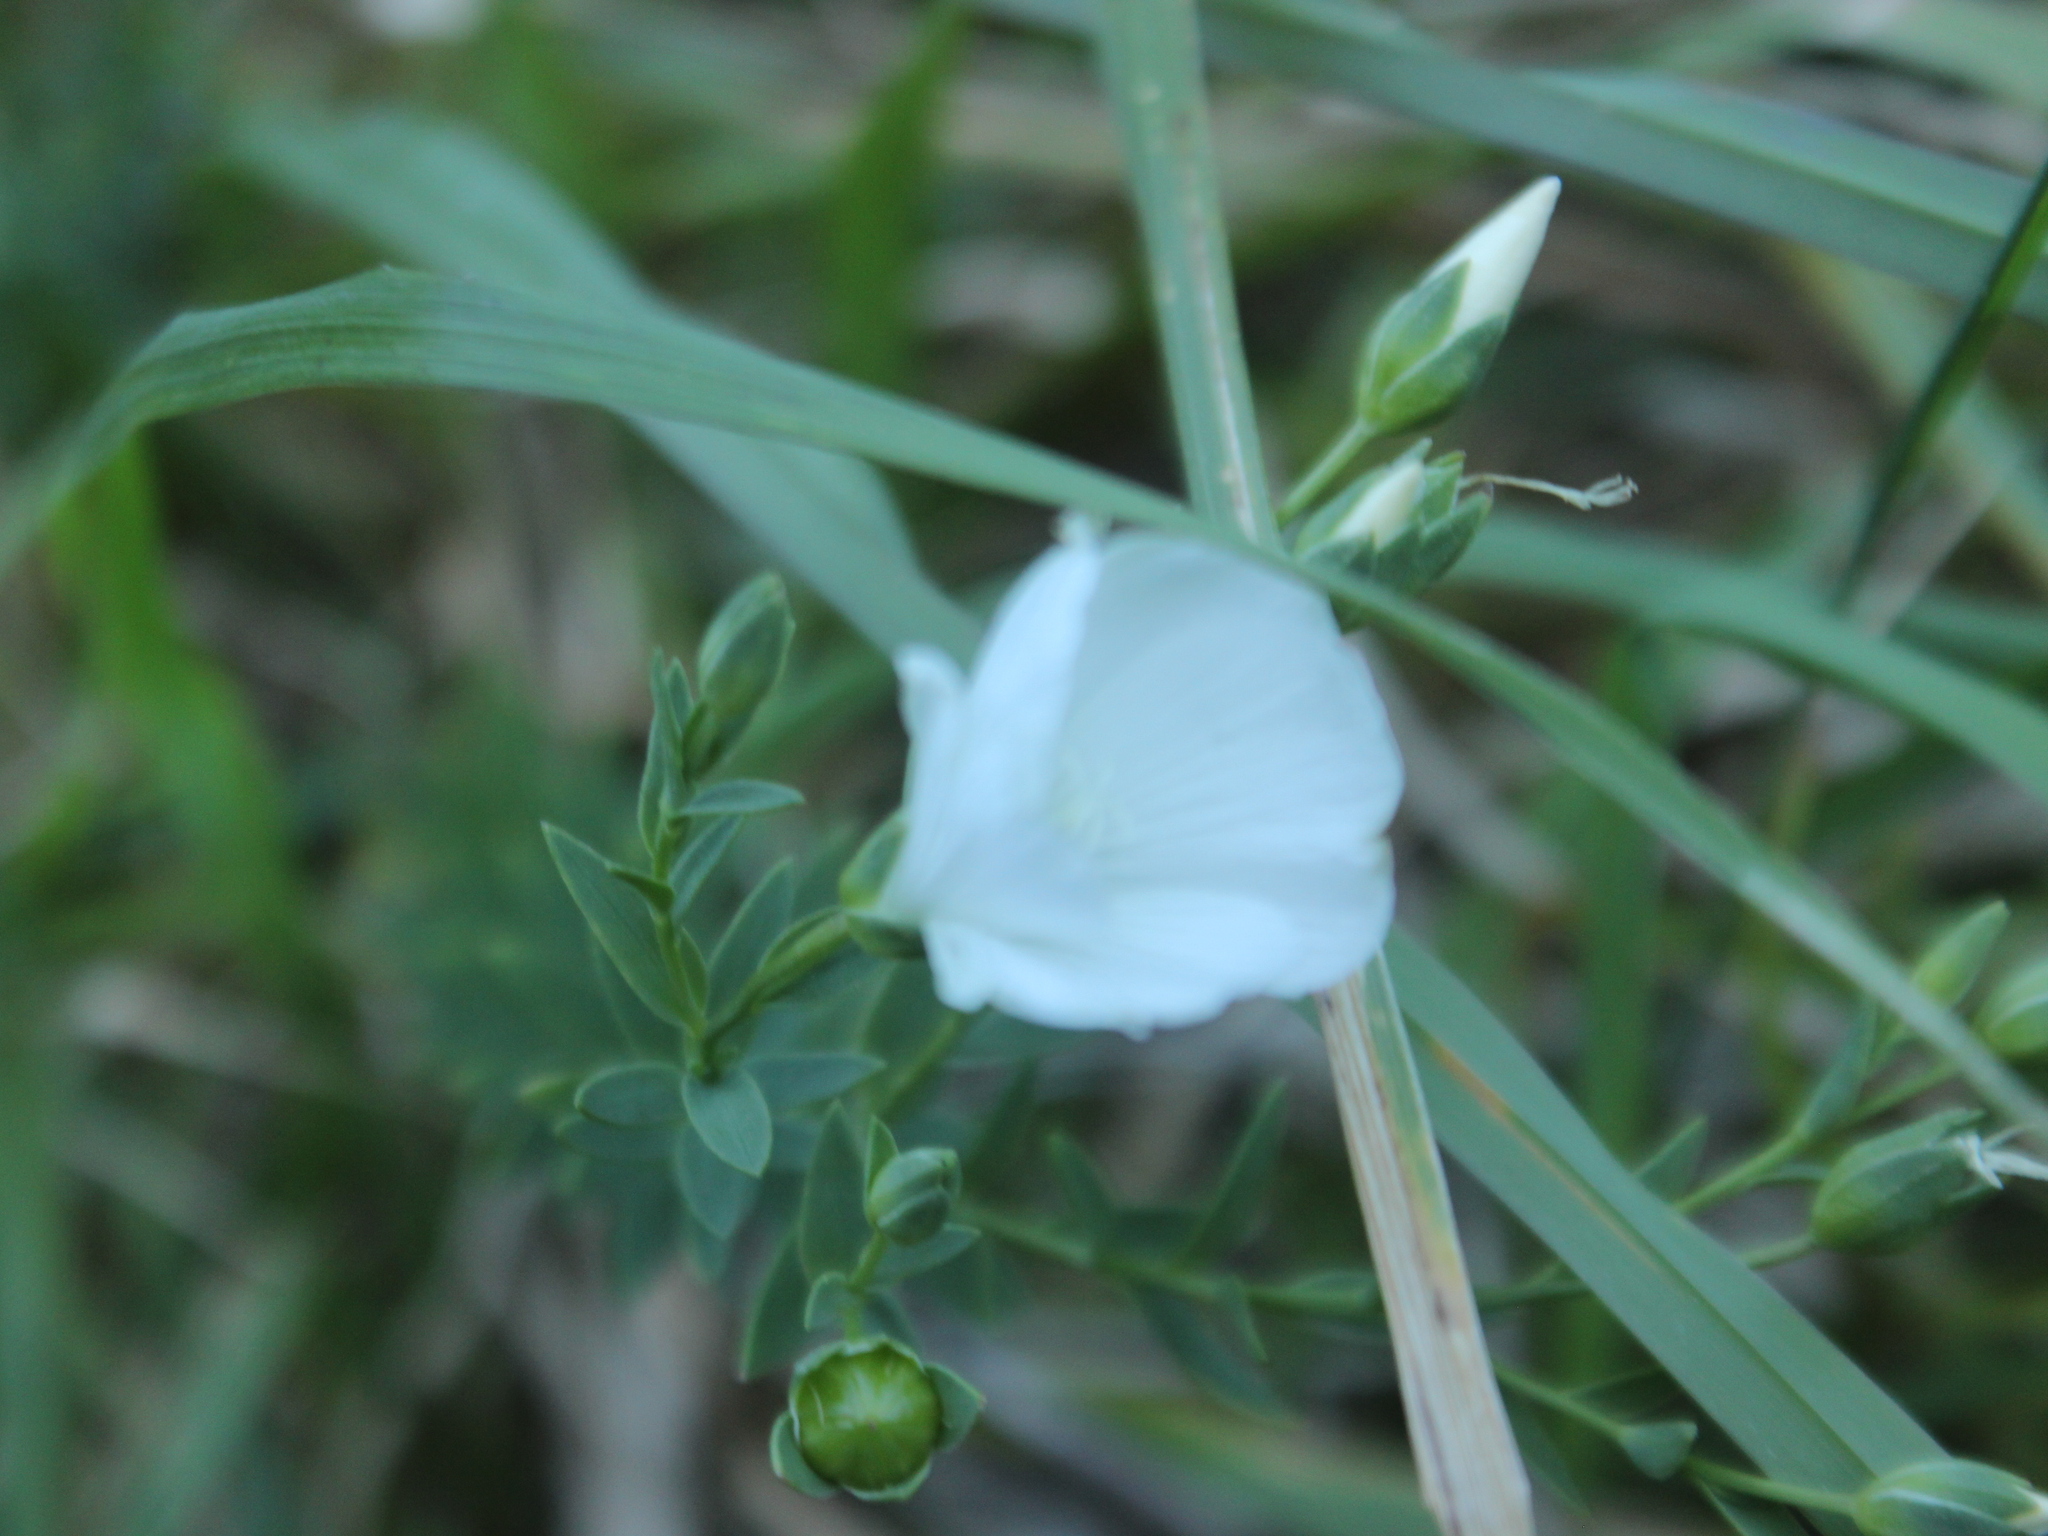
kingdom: Plantae
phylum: Tracheophyta
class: Magnoliopsida
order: Malpighiales
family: Linaceae
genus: Linum
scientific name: Linum monogynum
